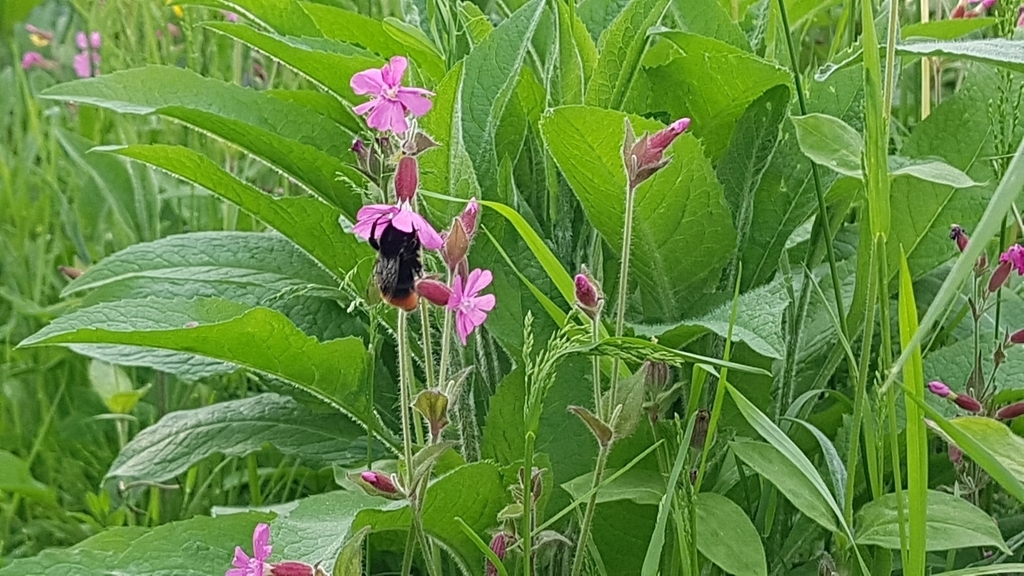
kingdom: Animalia
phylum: Arthropoda
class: Insecta
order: Hymenoptera
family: Apidae
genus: Bombus
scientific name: Bombus lapidarius
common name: Large red-tailed humble-bee
